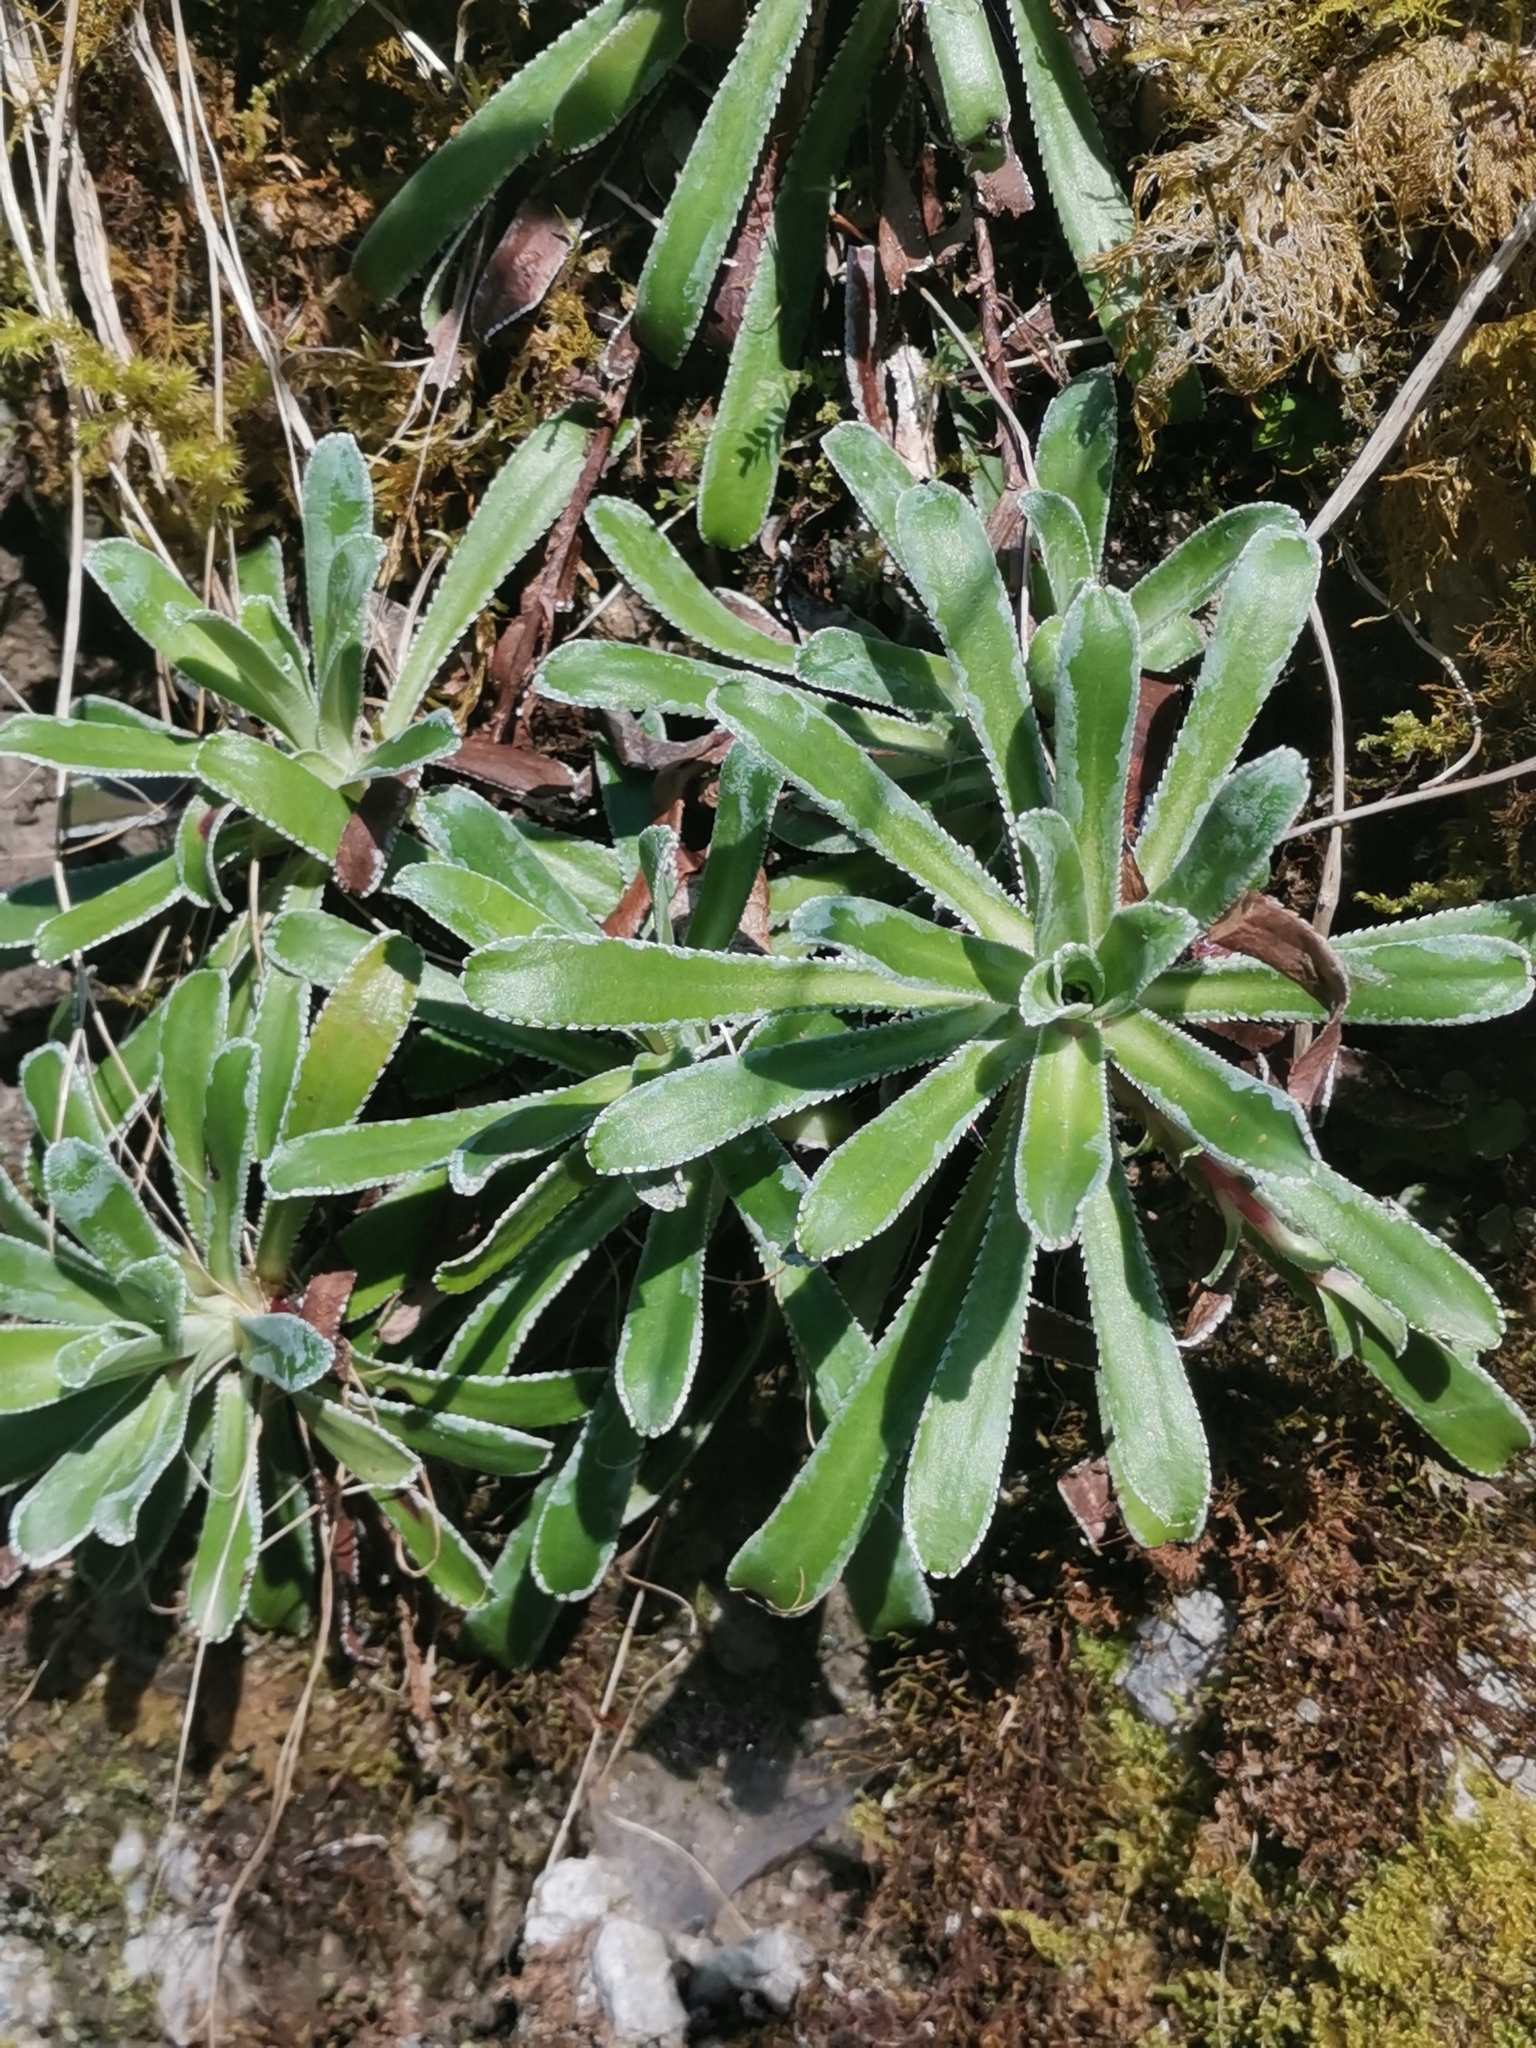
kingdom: Plantae
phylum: Tracheophyta
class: Magnoliopsida
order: Saxifragales
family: Saxifragaceae
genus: Saxifraga
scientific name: Saxifraga hostii
